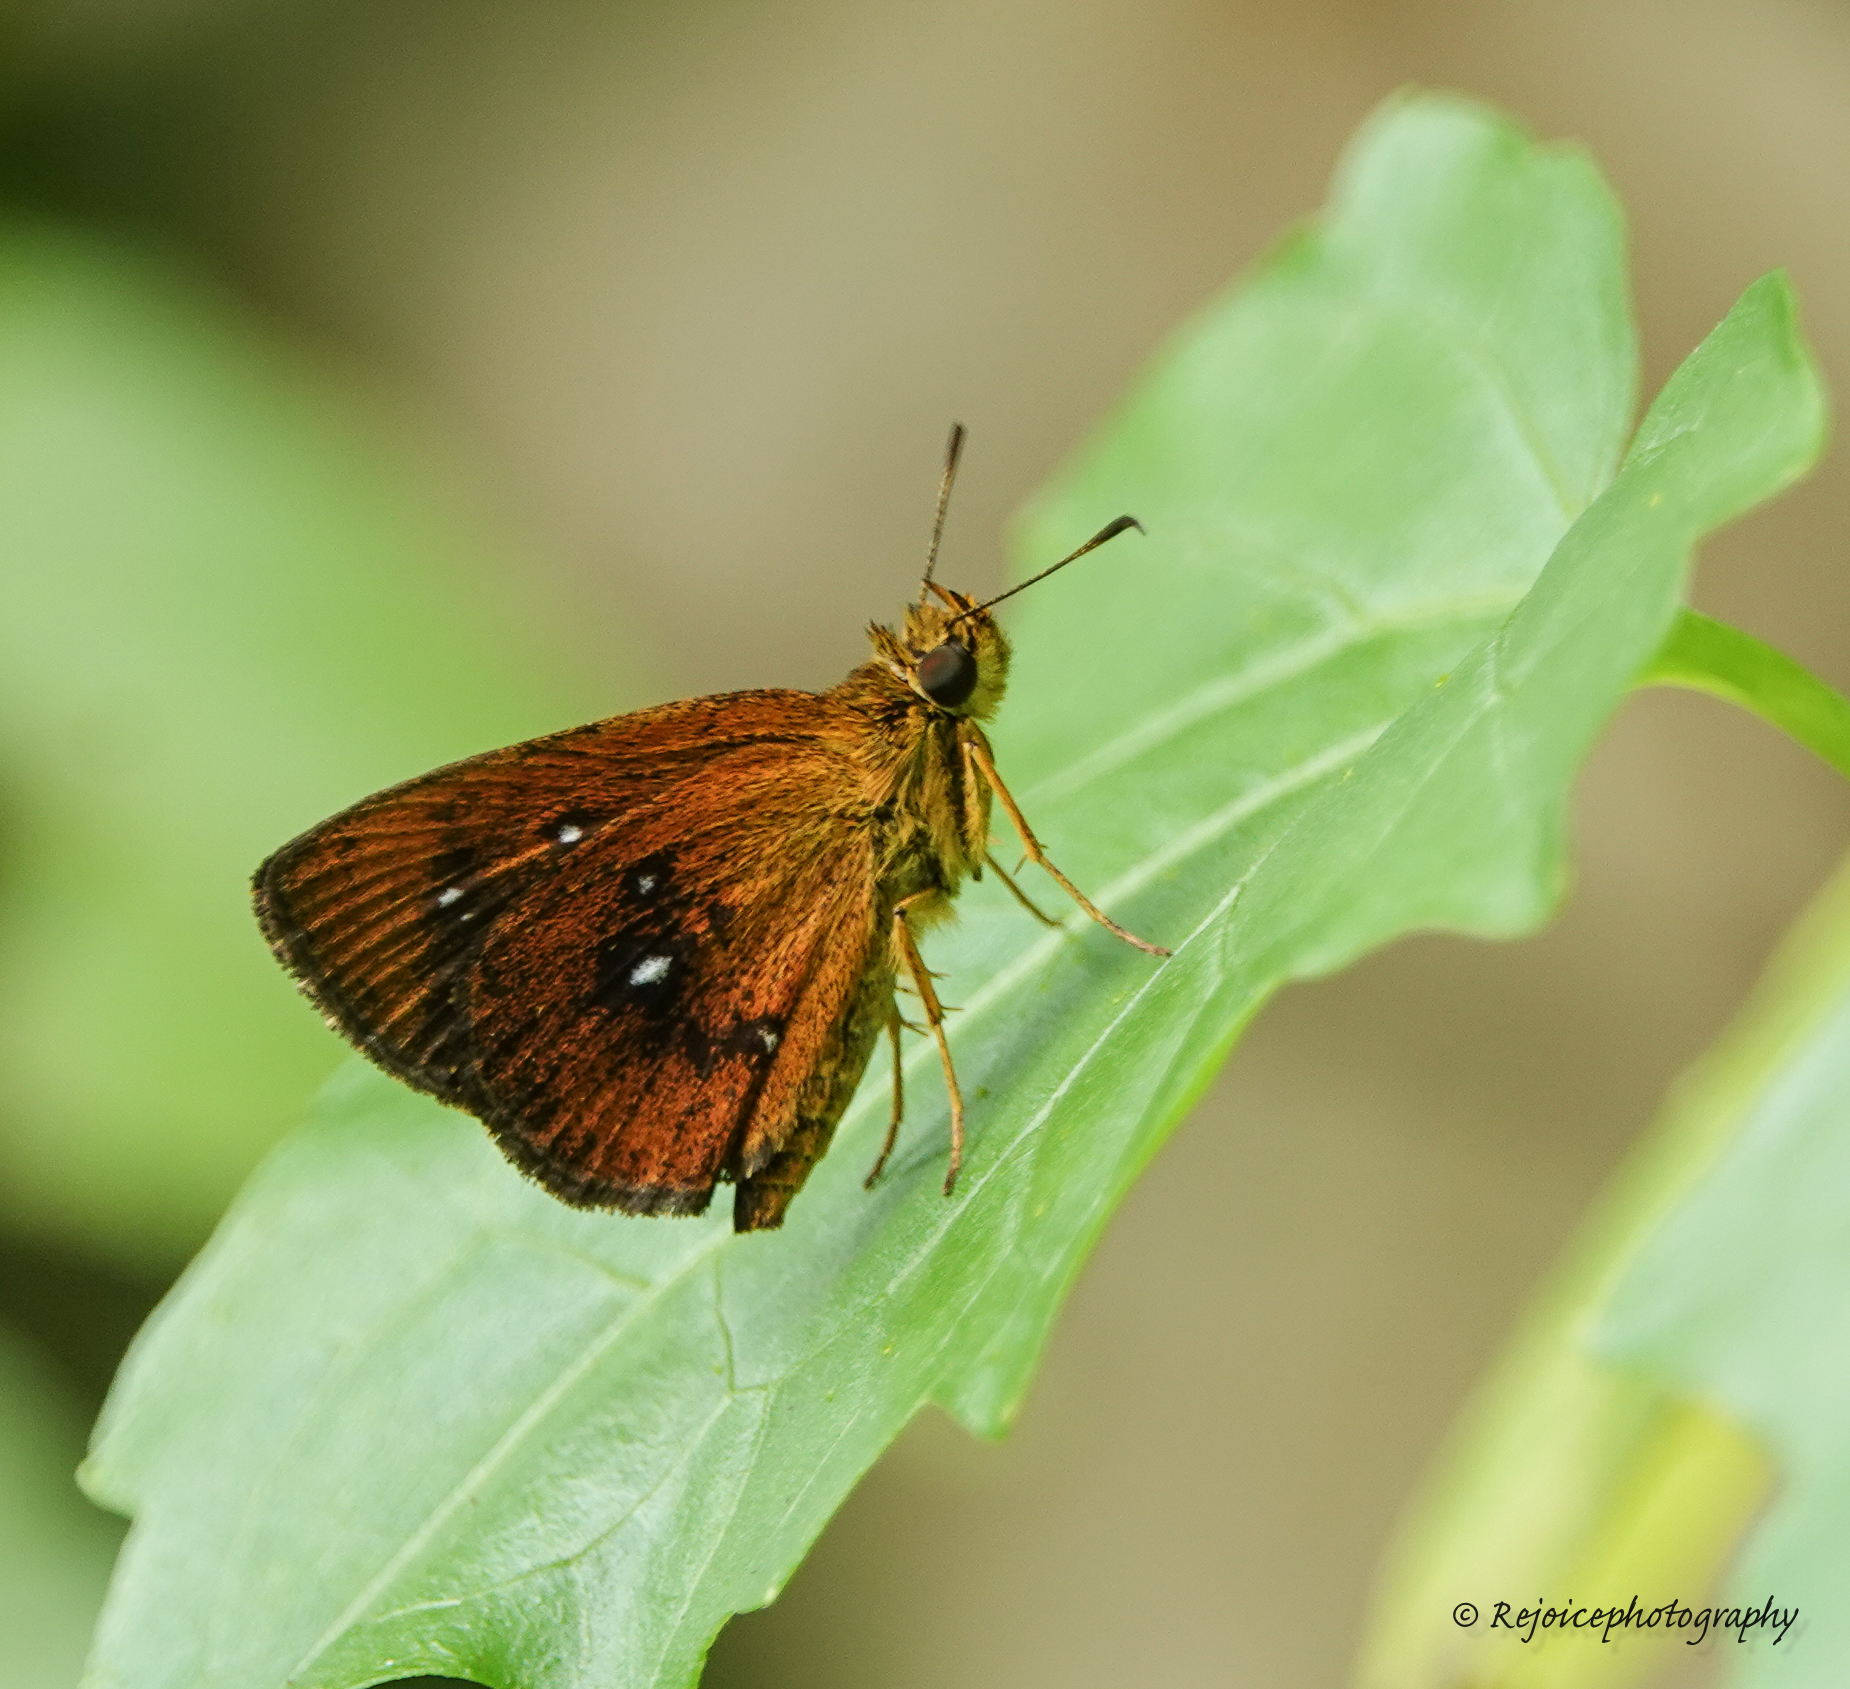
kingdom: Animalia
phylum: Arthropoda
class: Insecta
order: Lepidoptera
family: Hesperiidae
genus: Iambrix
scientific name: Iambrix salsala
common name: Chestnut bob
